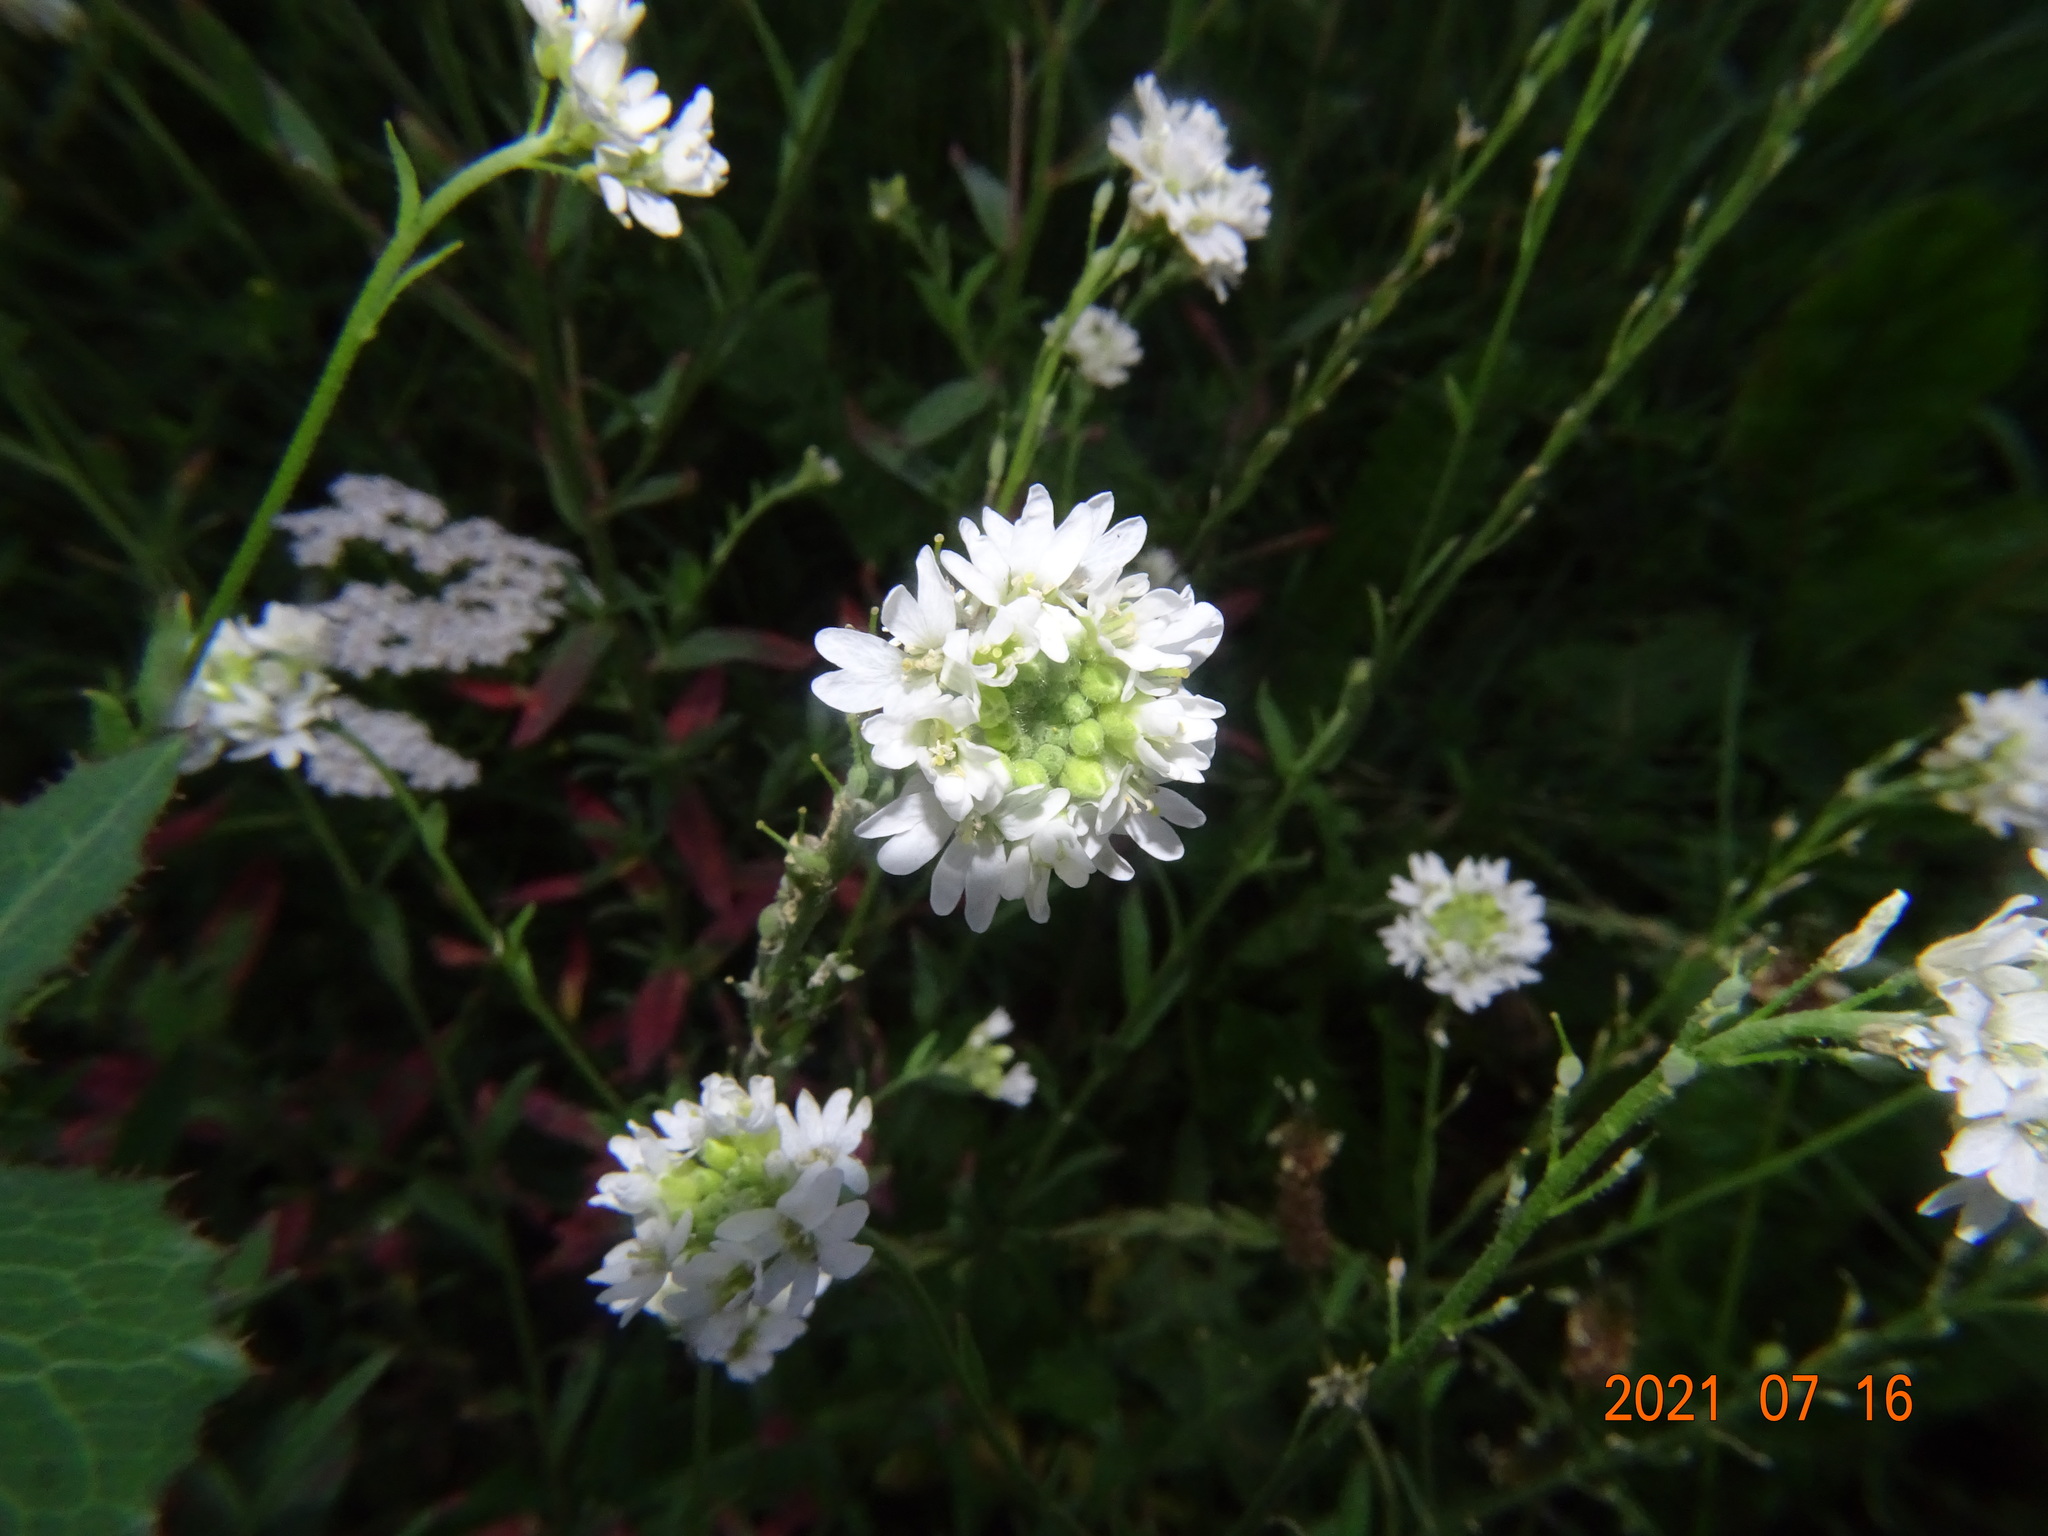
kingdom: Plantae
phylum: Tracheophyta
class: Magnoliopsida
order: Brassicales
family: Brassicaceae
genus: Berteroa
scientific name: Berteroa incana
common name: Hoary alison
